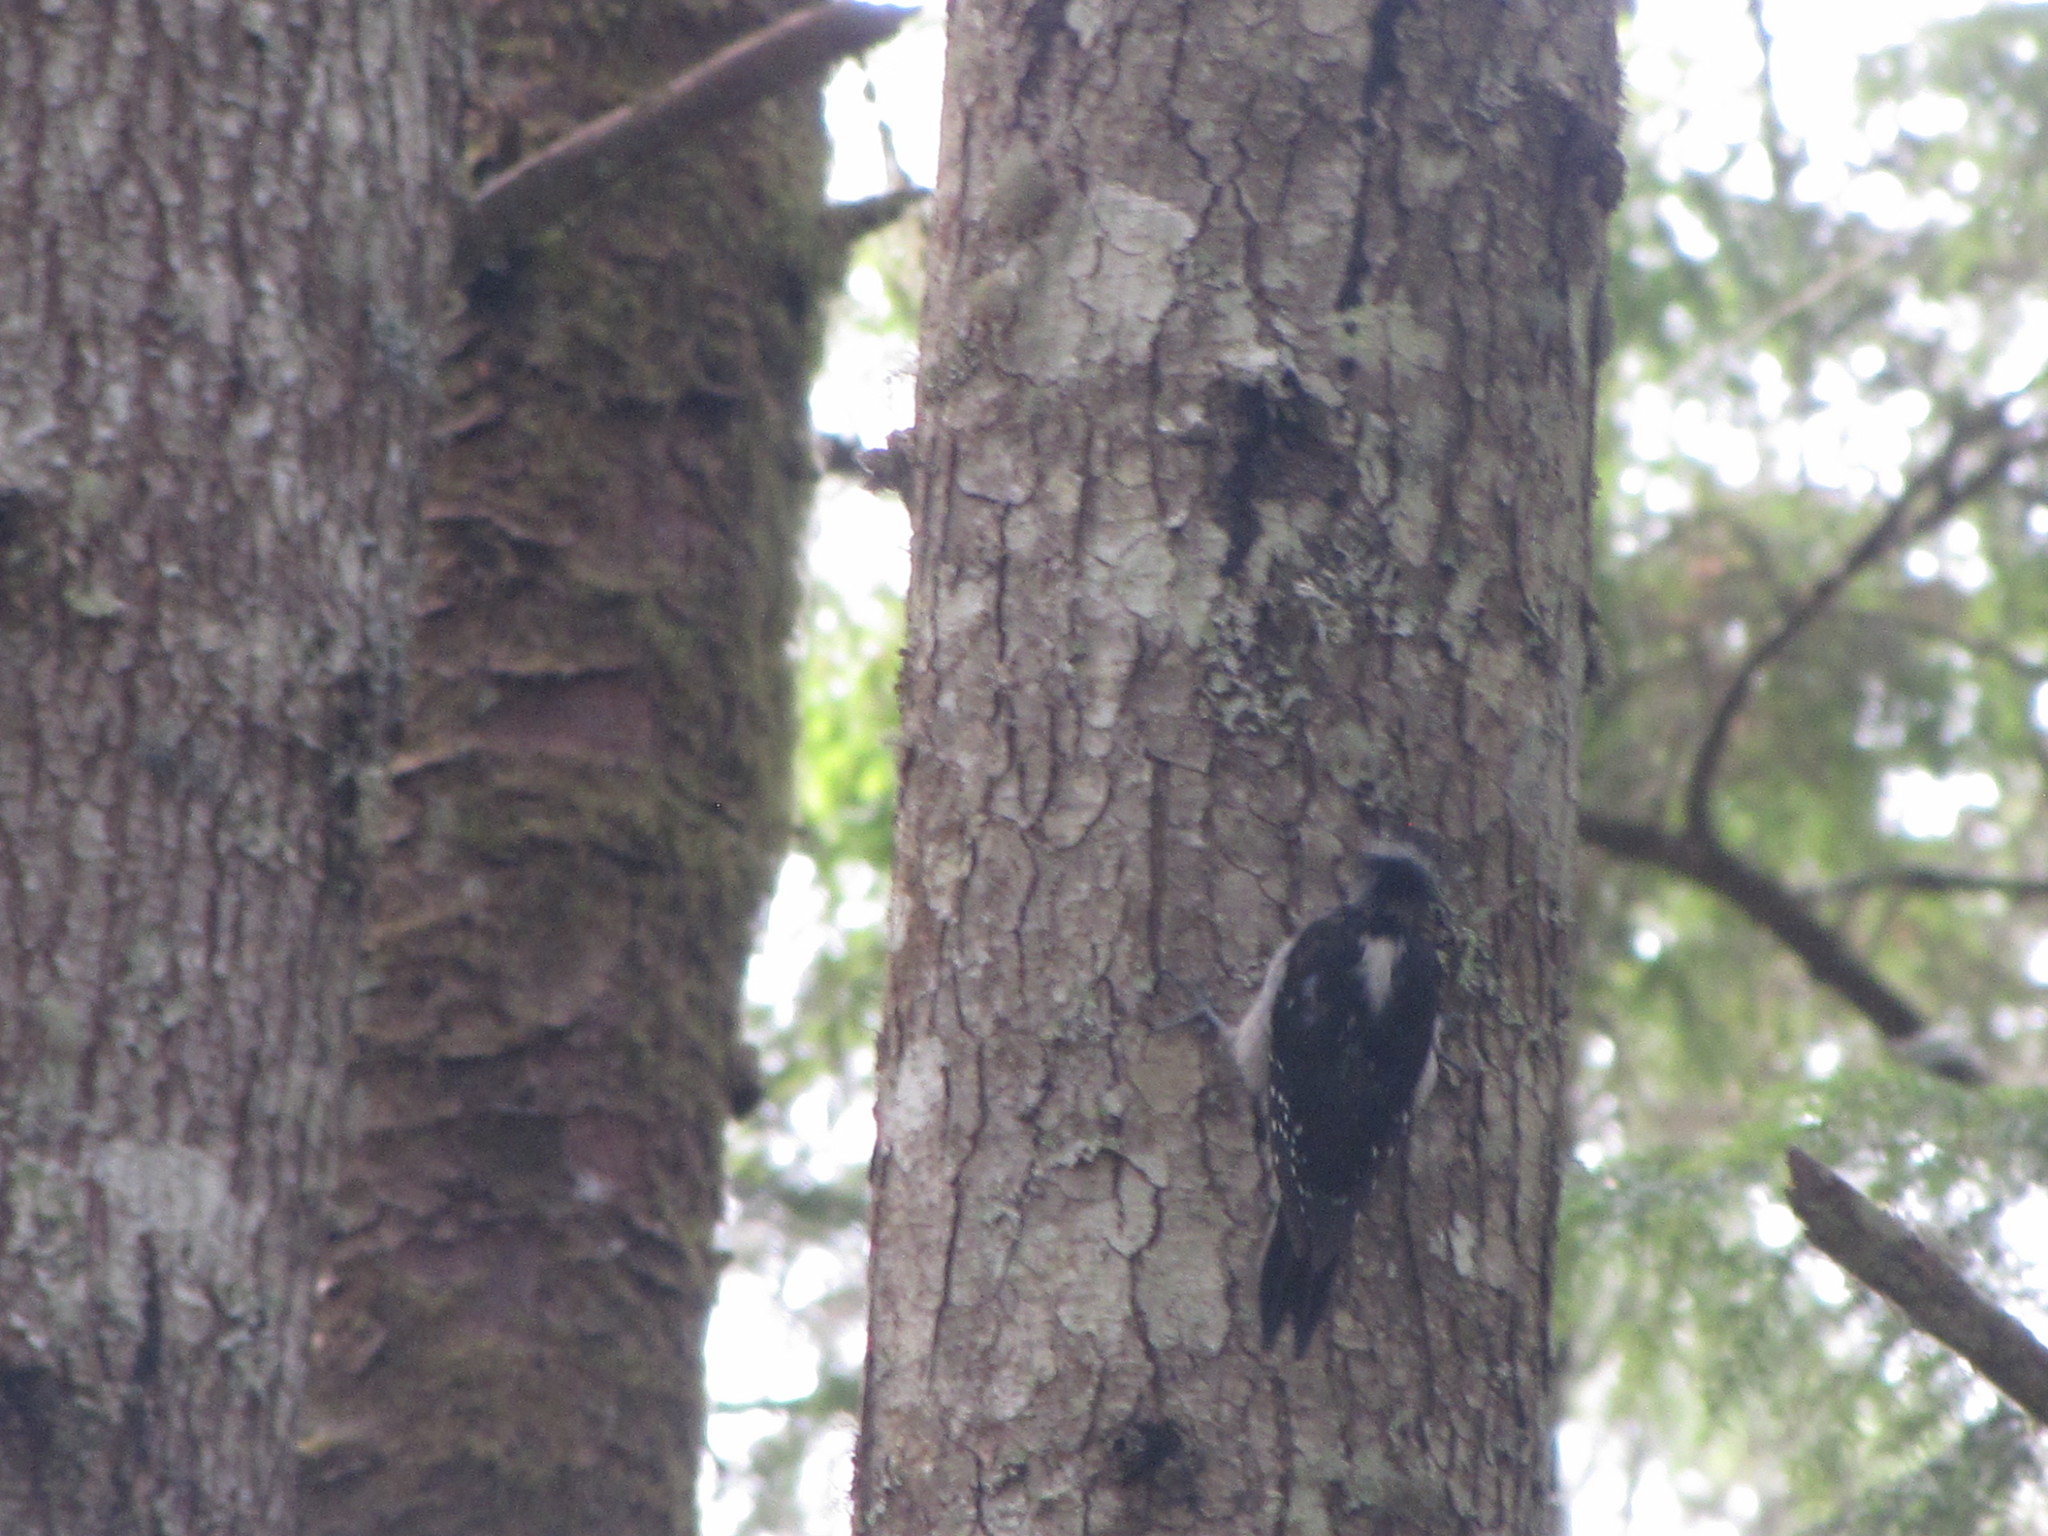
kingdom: Animalia
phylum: Chordata
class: Aves
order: Piciformes
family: Picidae
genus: Leuconotopicus
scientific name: Leuconotopicus villosus
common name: Hairy woodpecker
